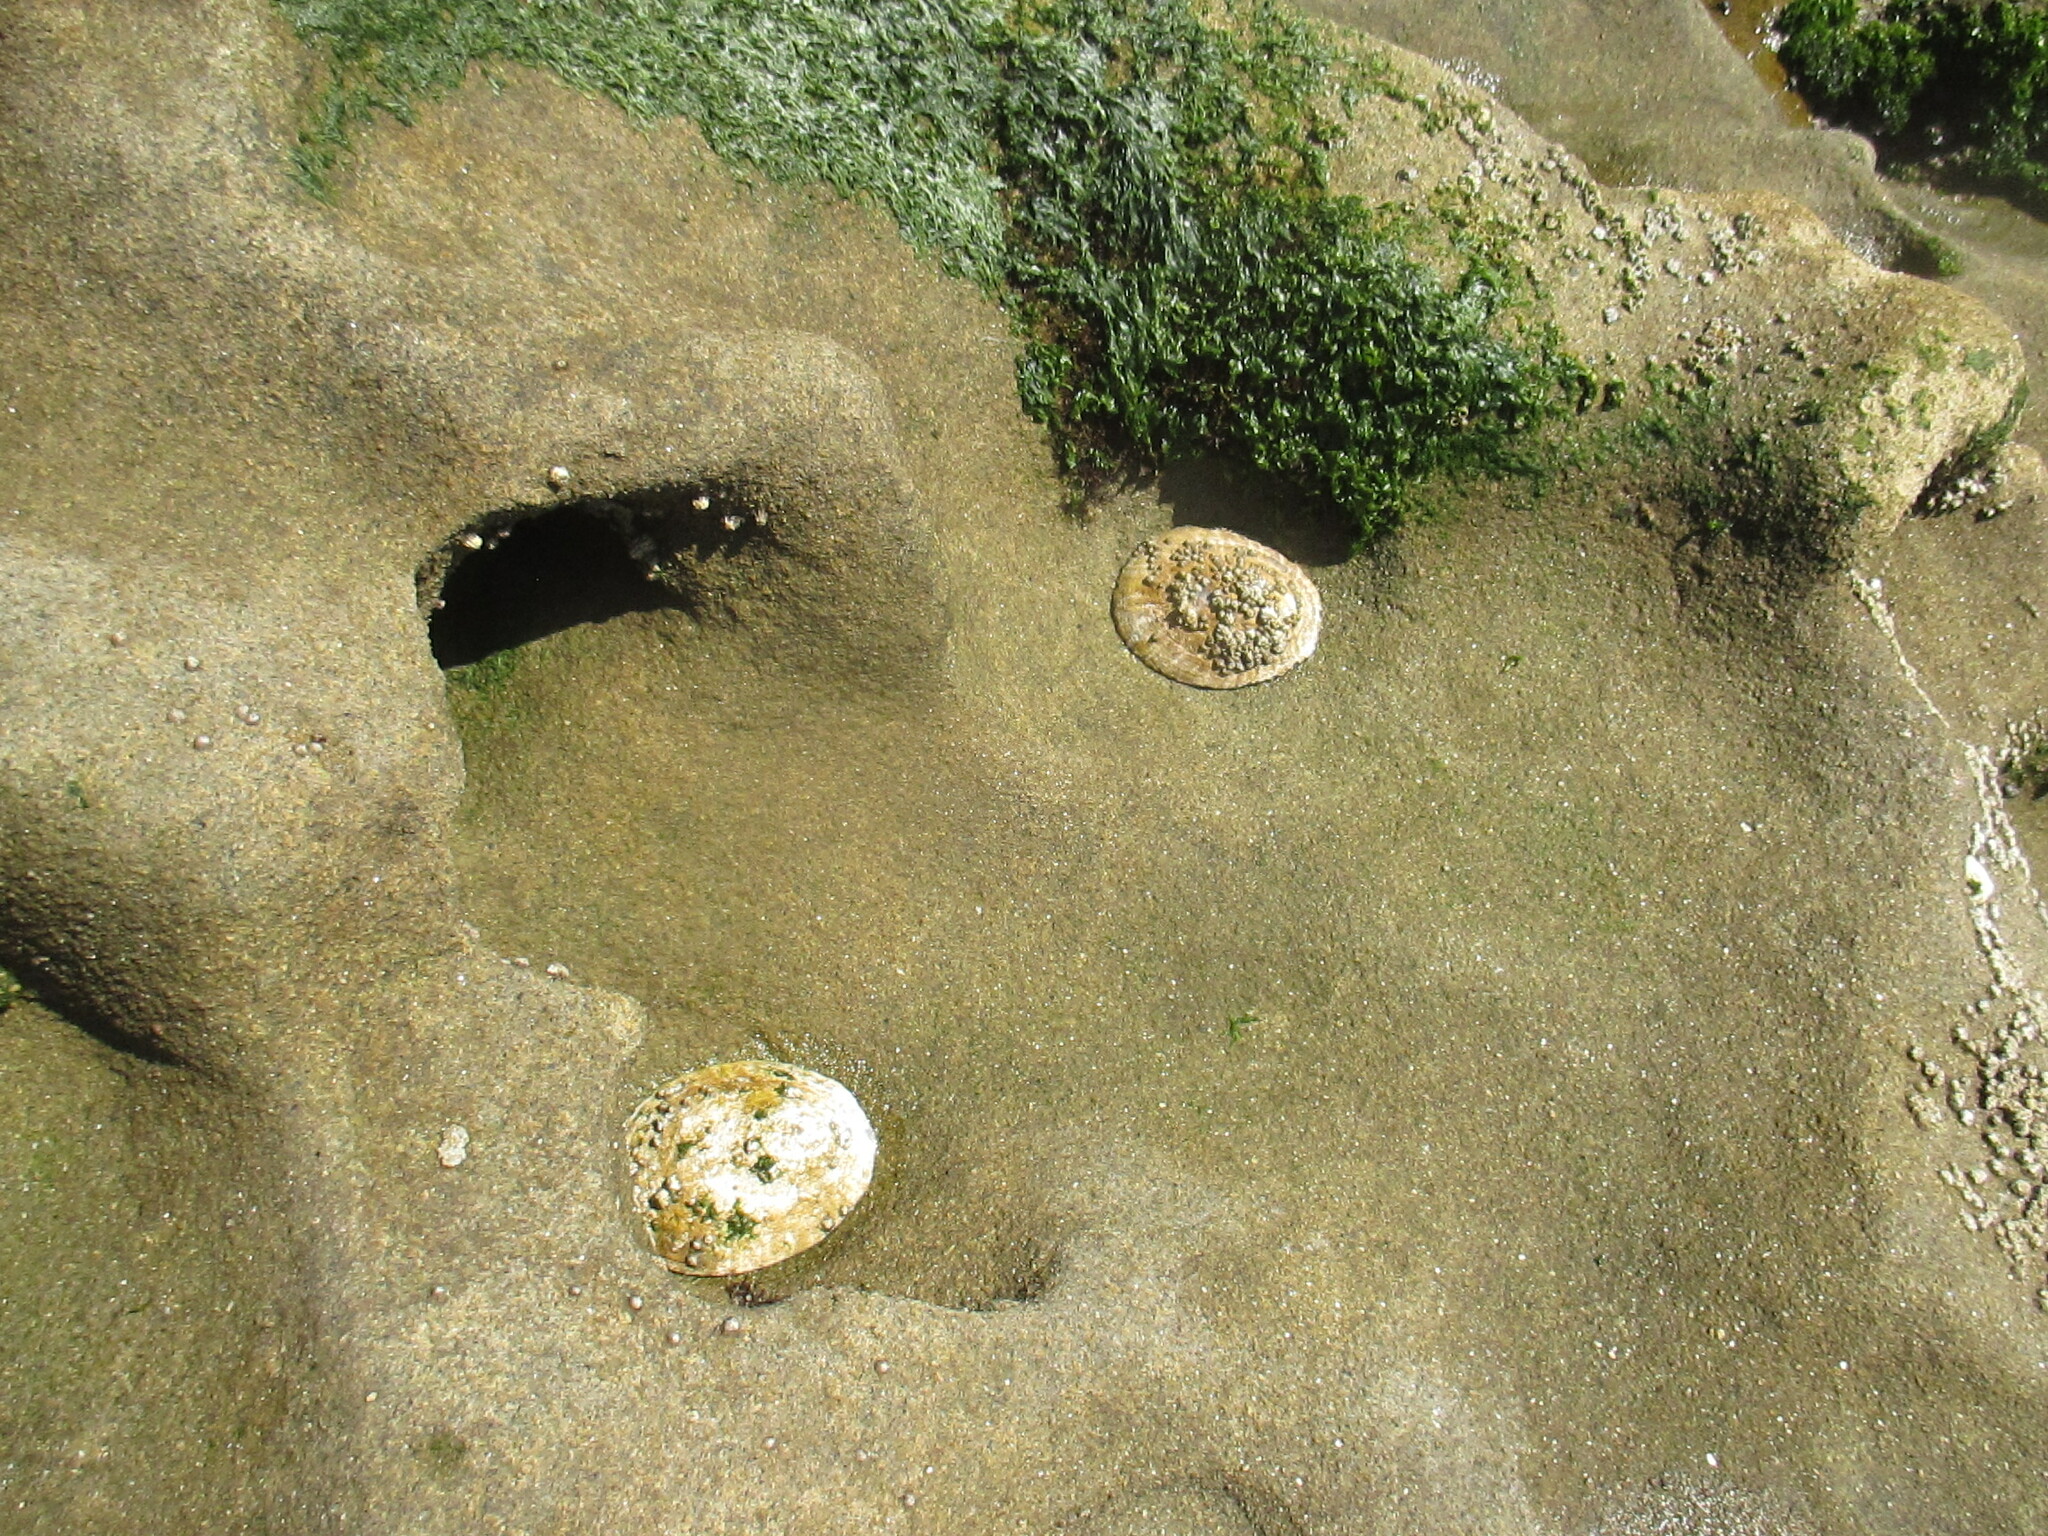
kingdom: Animalia
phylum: Mollusca
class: Gastropoda
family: Lottiidae
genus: Lottia
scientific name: Lottia gigantea
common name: Owl limpet
